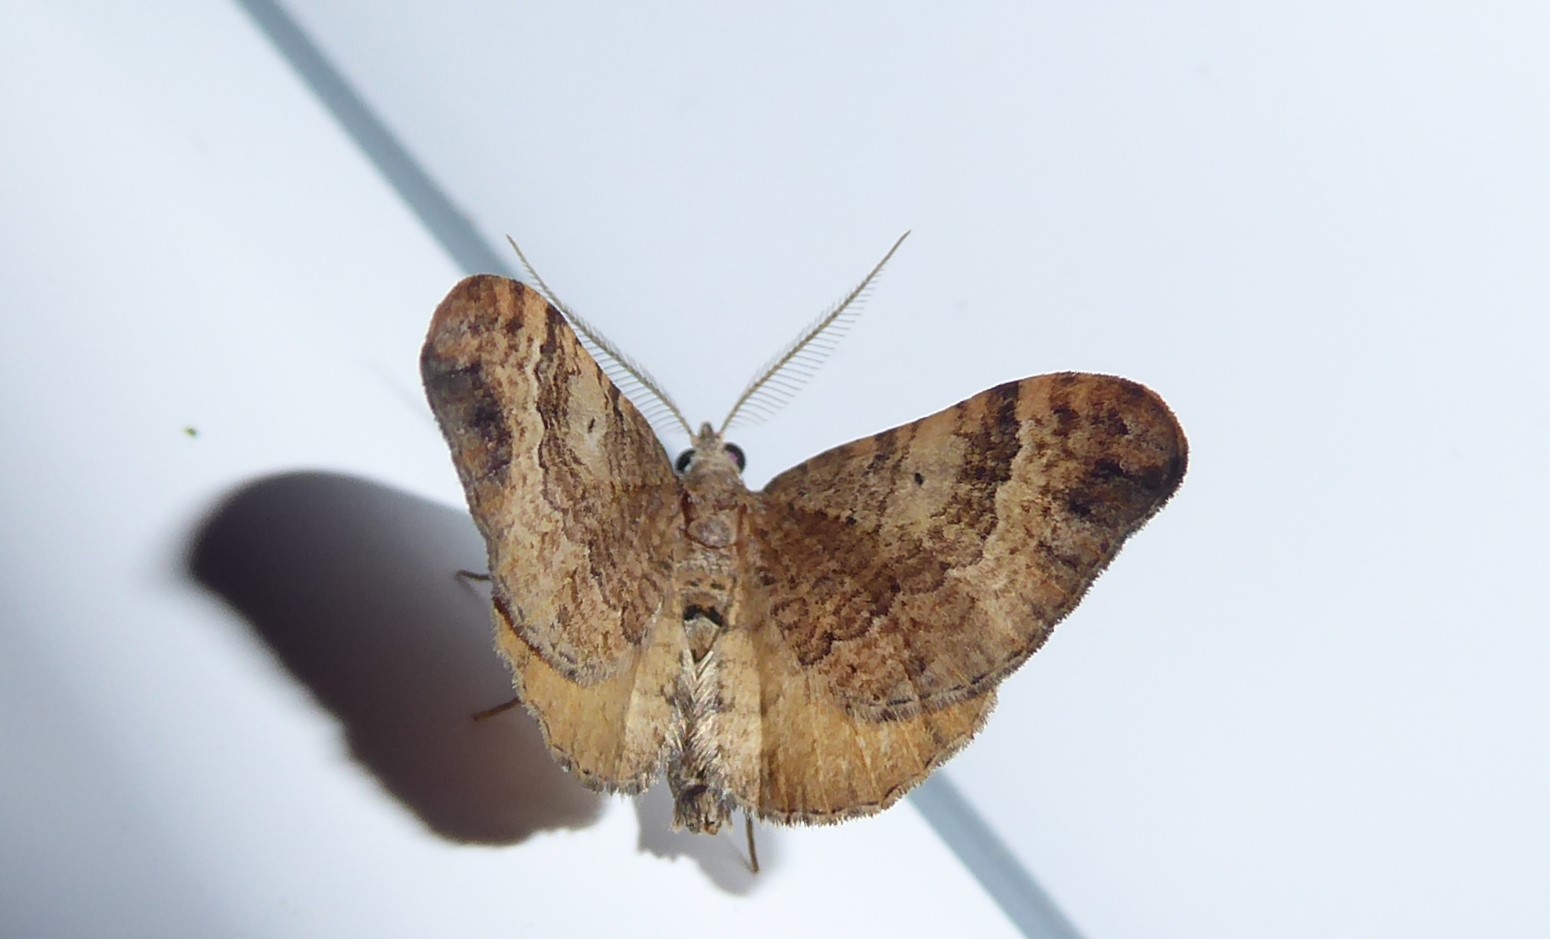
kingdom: Animalia
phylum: Arthropoda
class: Insecta
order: Lepidoptera
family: Geometridae
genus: Homodotis
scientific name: Homodotis megaspilata
